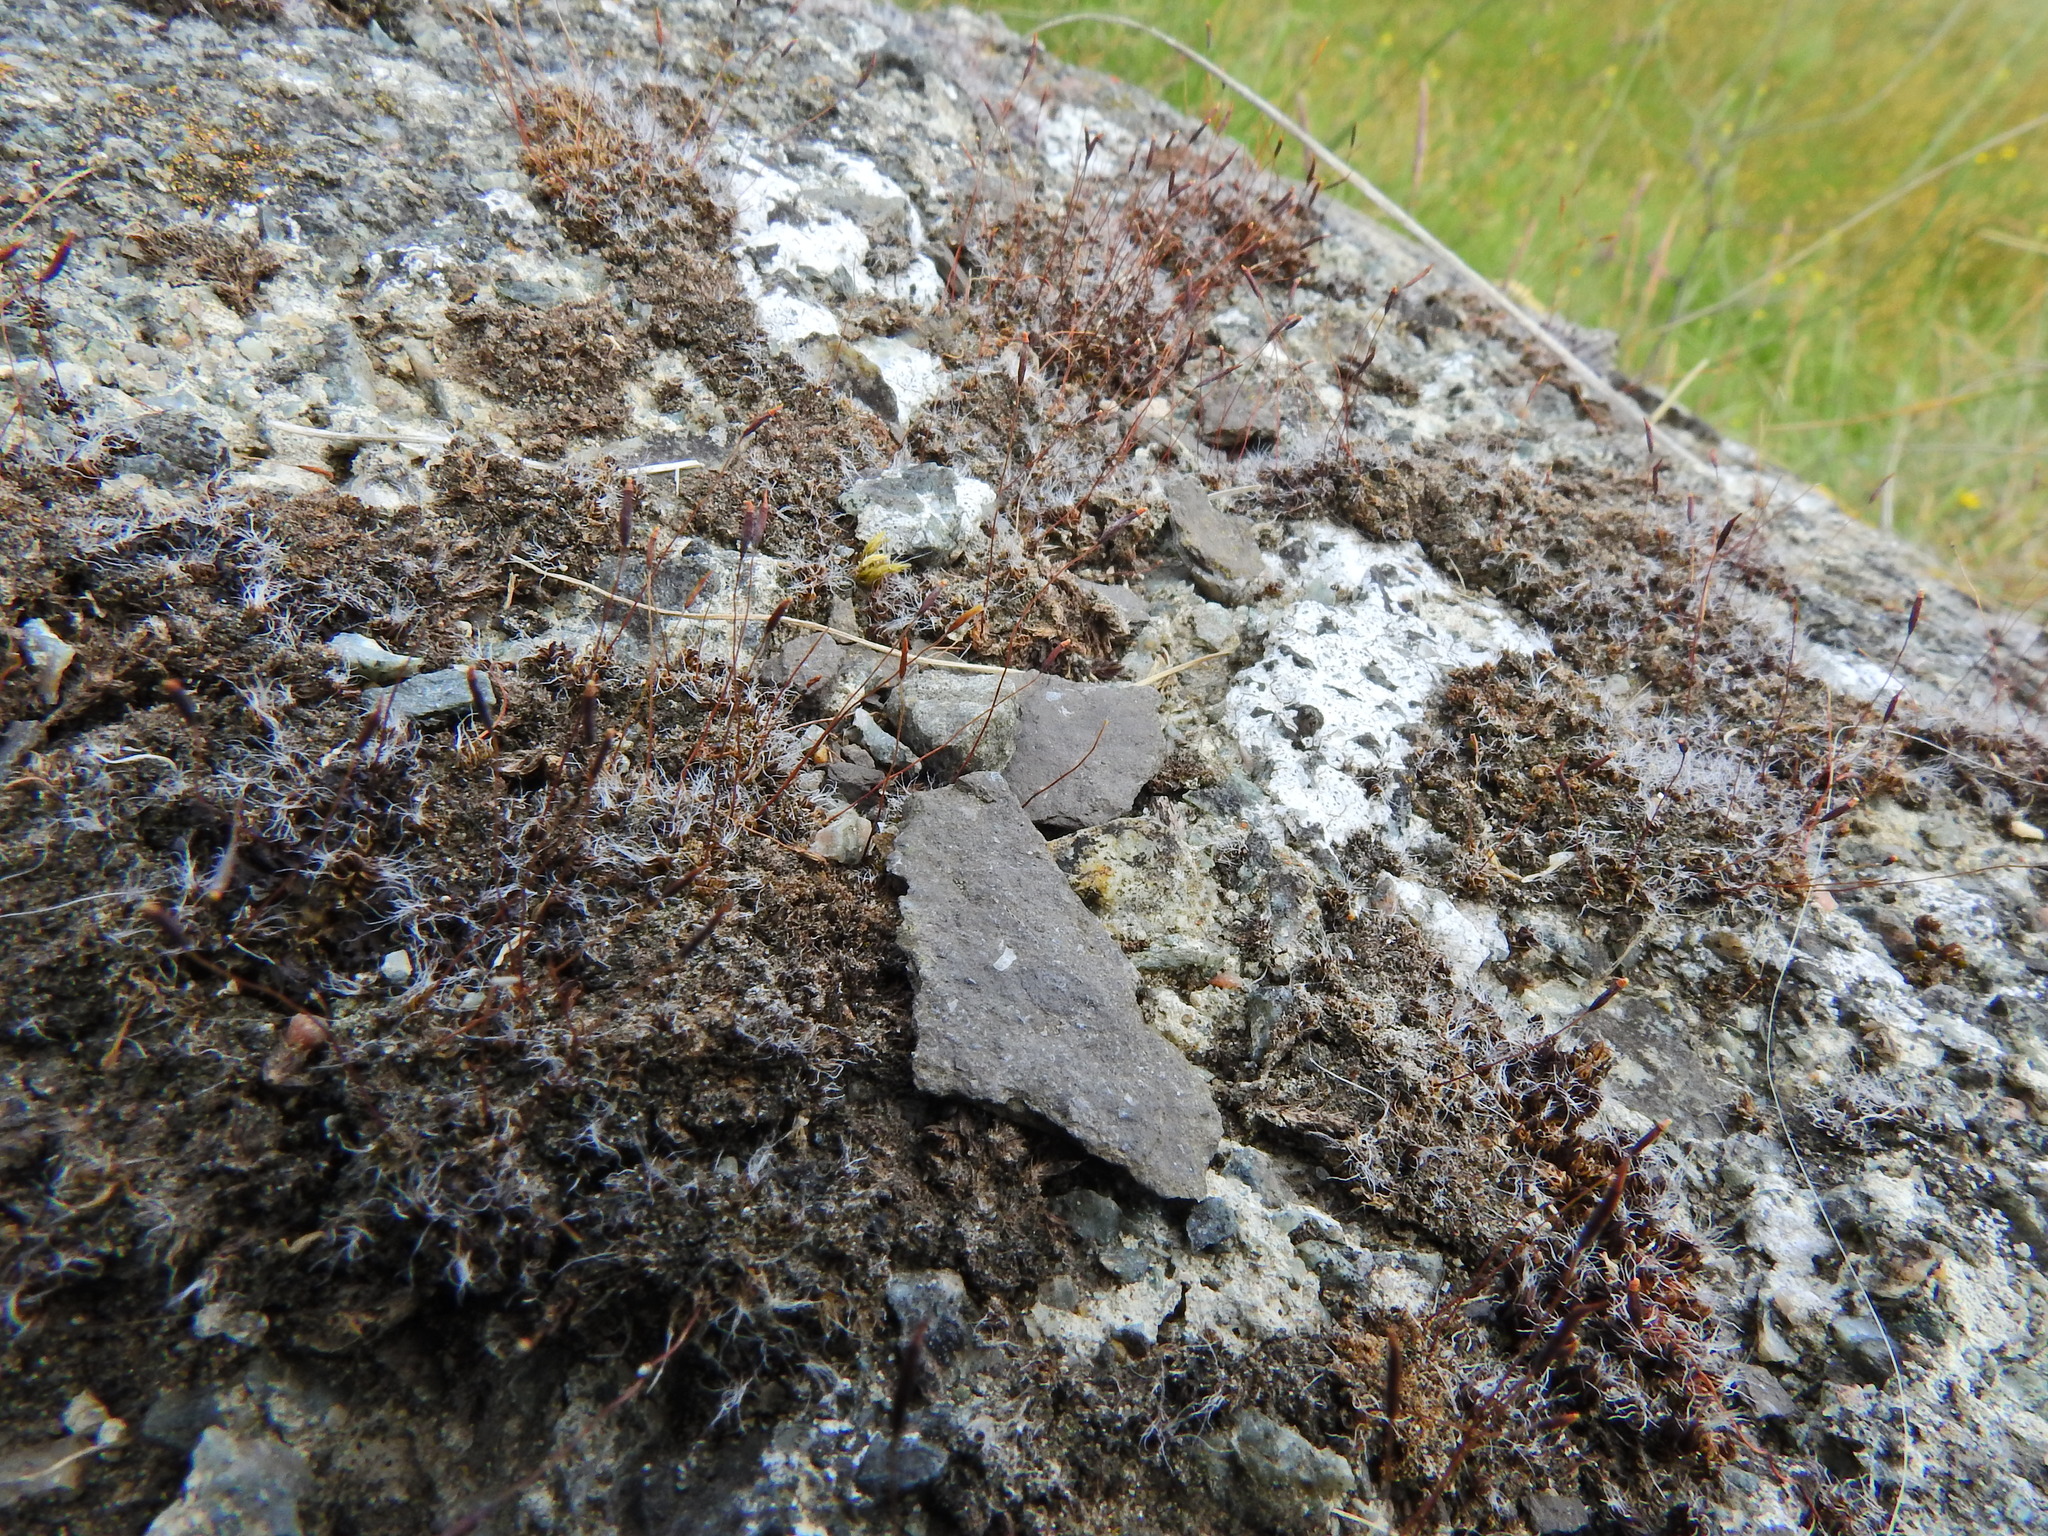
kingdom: Plantae
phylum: Bryophyta
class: Bryopsida
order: Pottiales
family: Pottiaceae
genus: Tortula
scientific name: Tortula muralis
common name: Wall screw-moss
